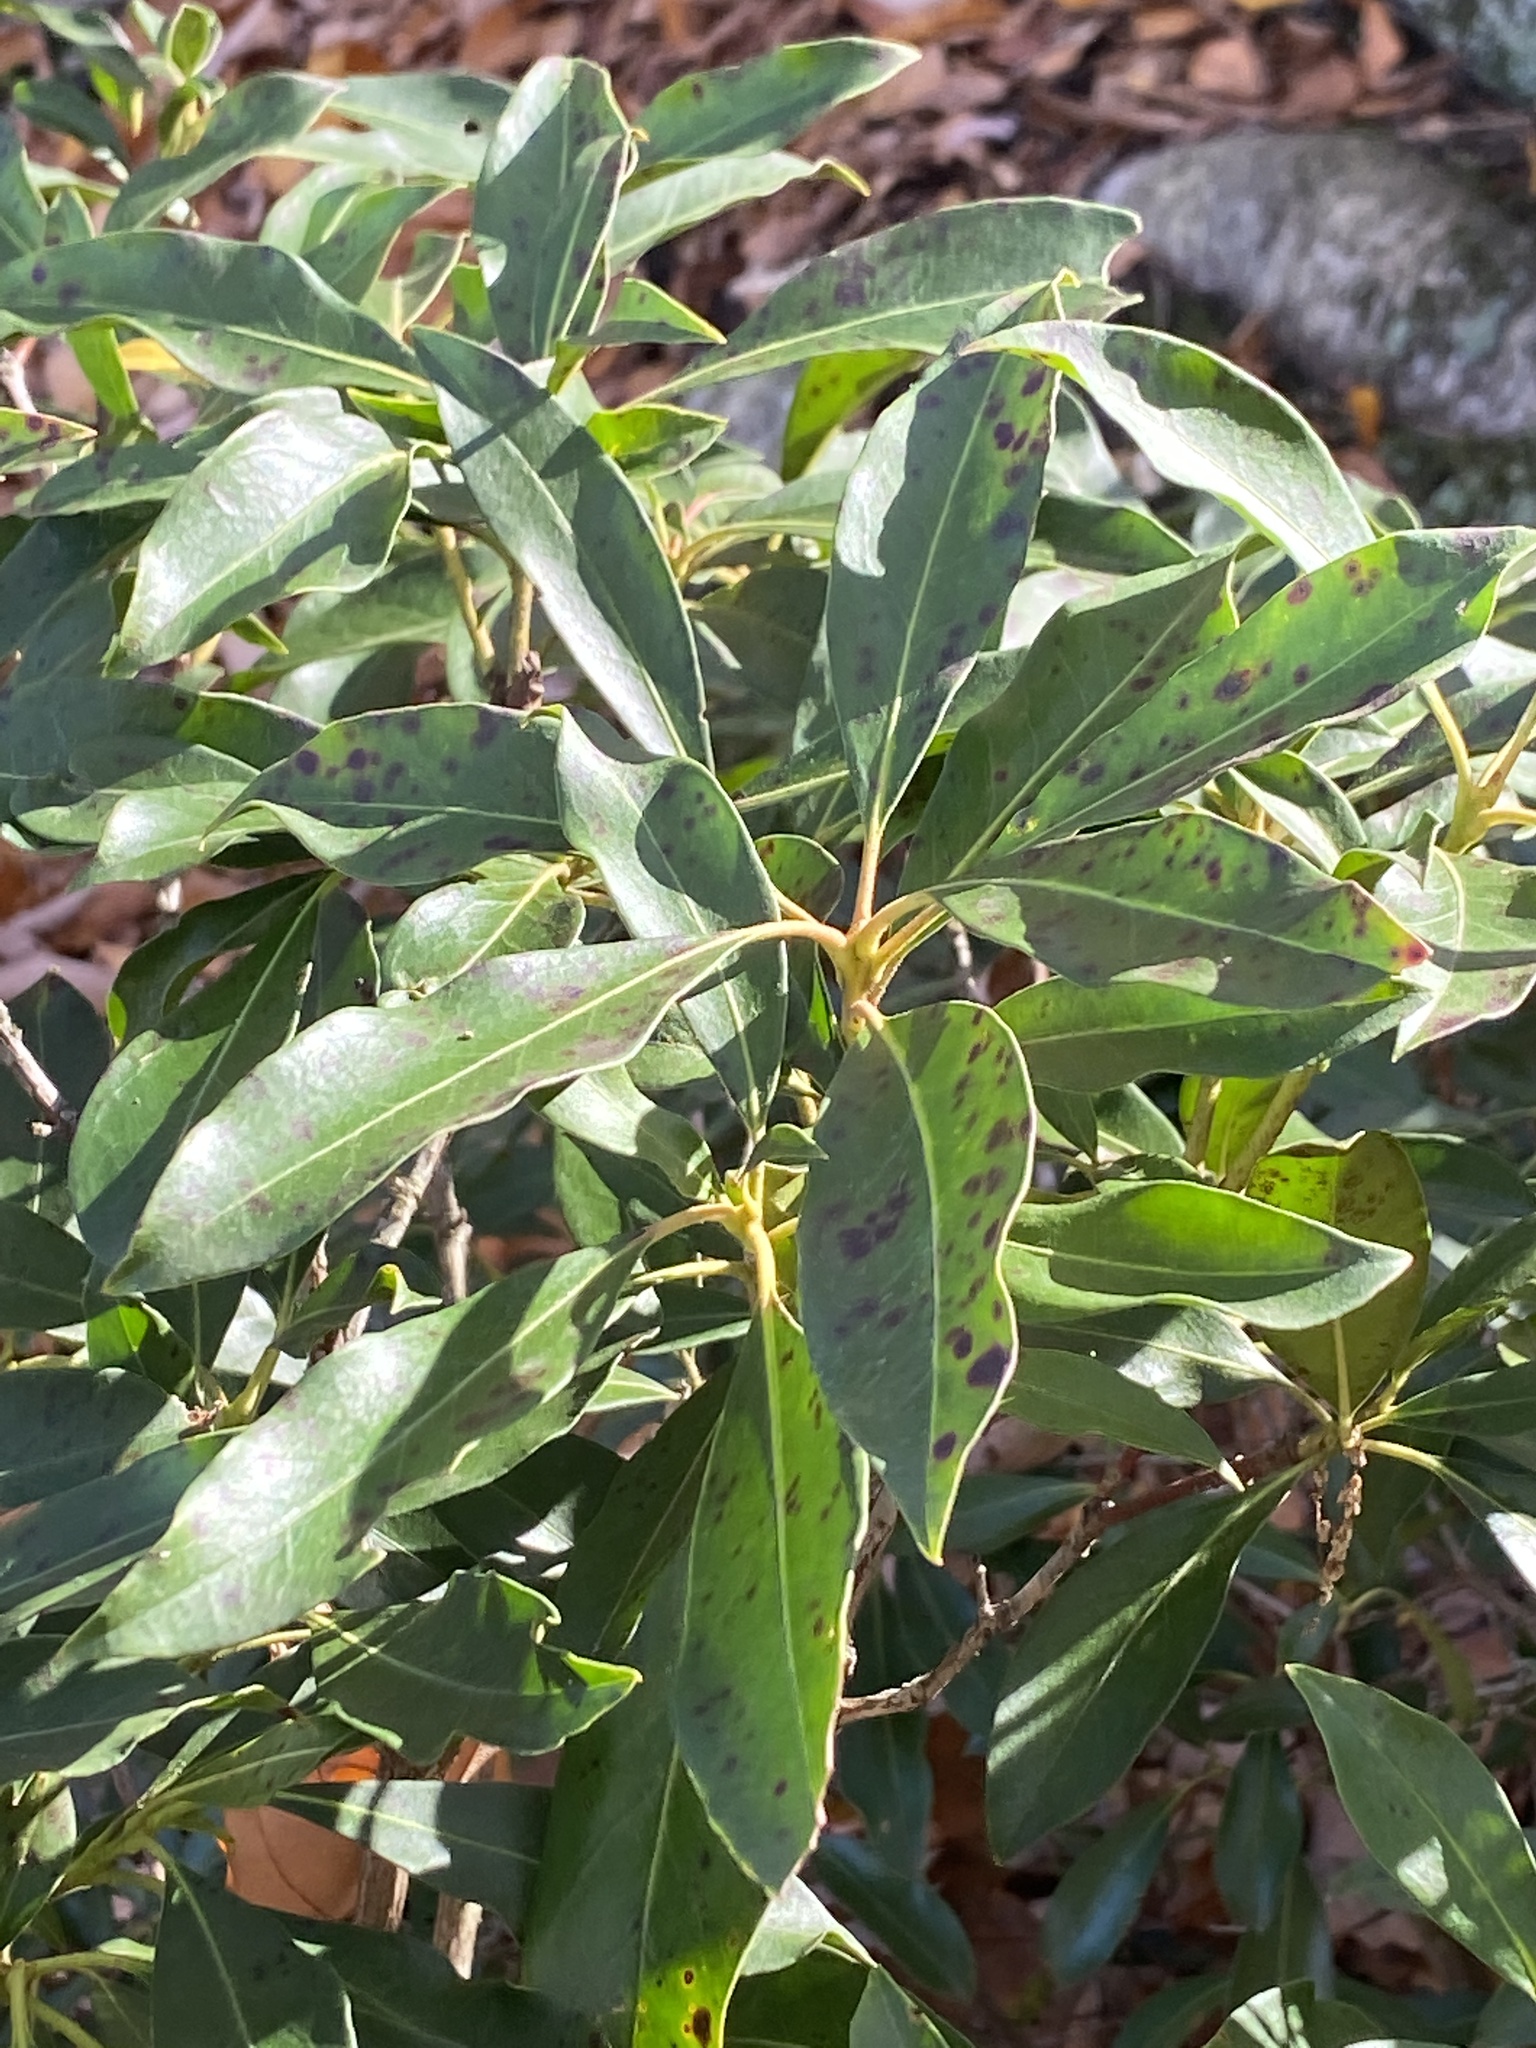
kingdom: Plantae
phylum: Tracheophyta
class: Magnoliopsida
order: Ericales
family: Ericaceae
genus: Kalmia
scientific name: Kalmia latifolia
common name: Mountain-laurel
